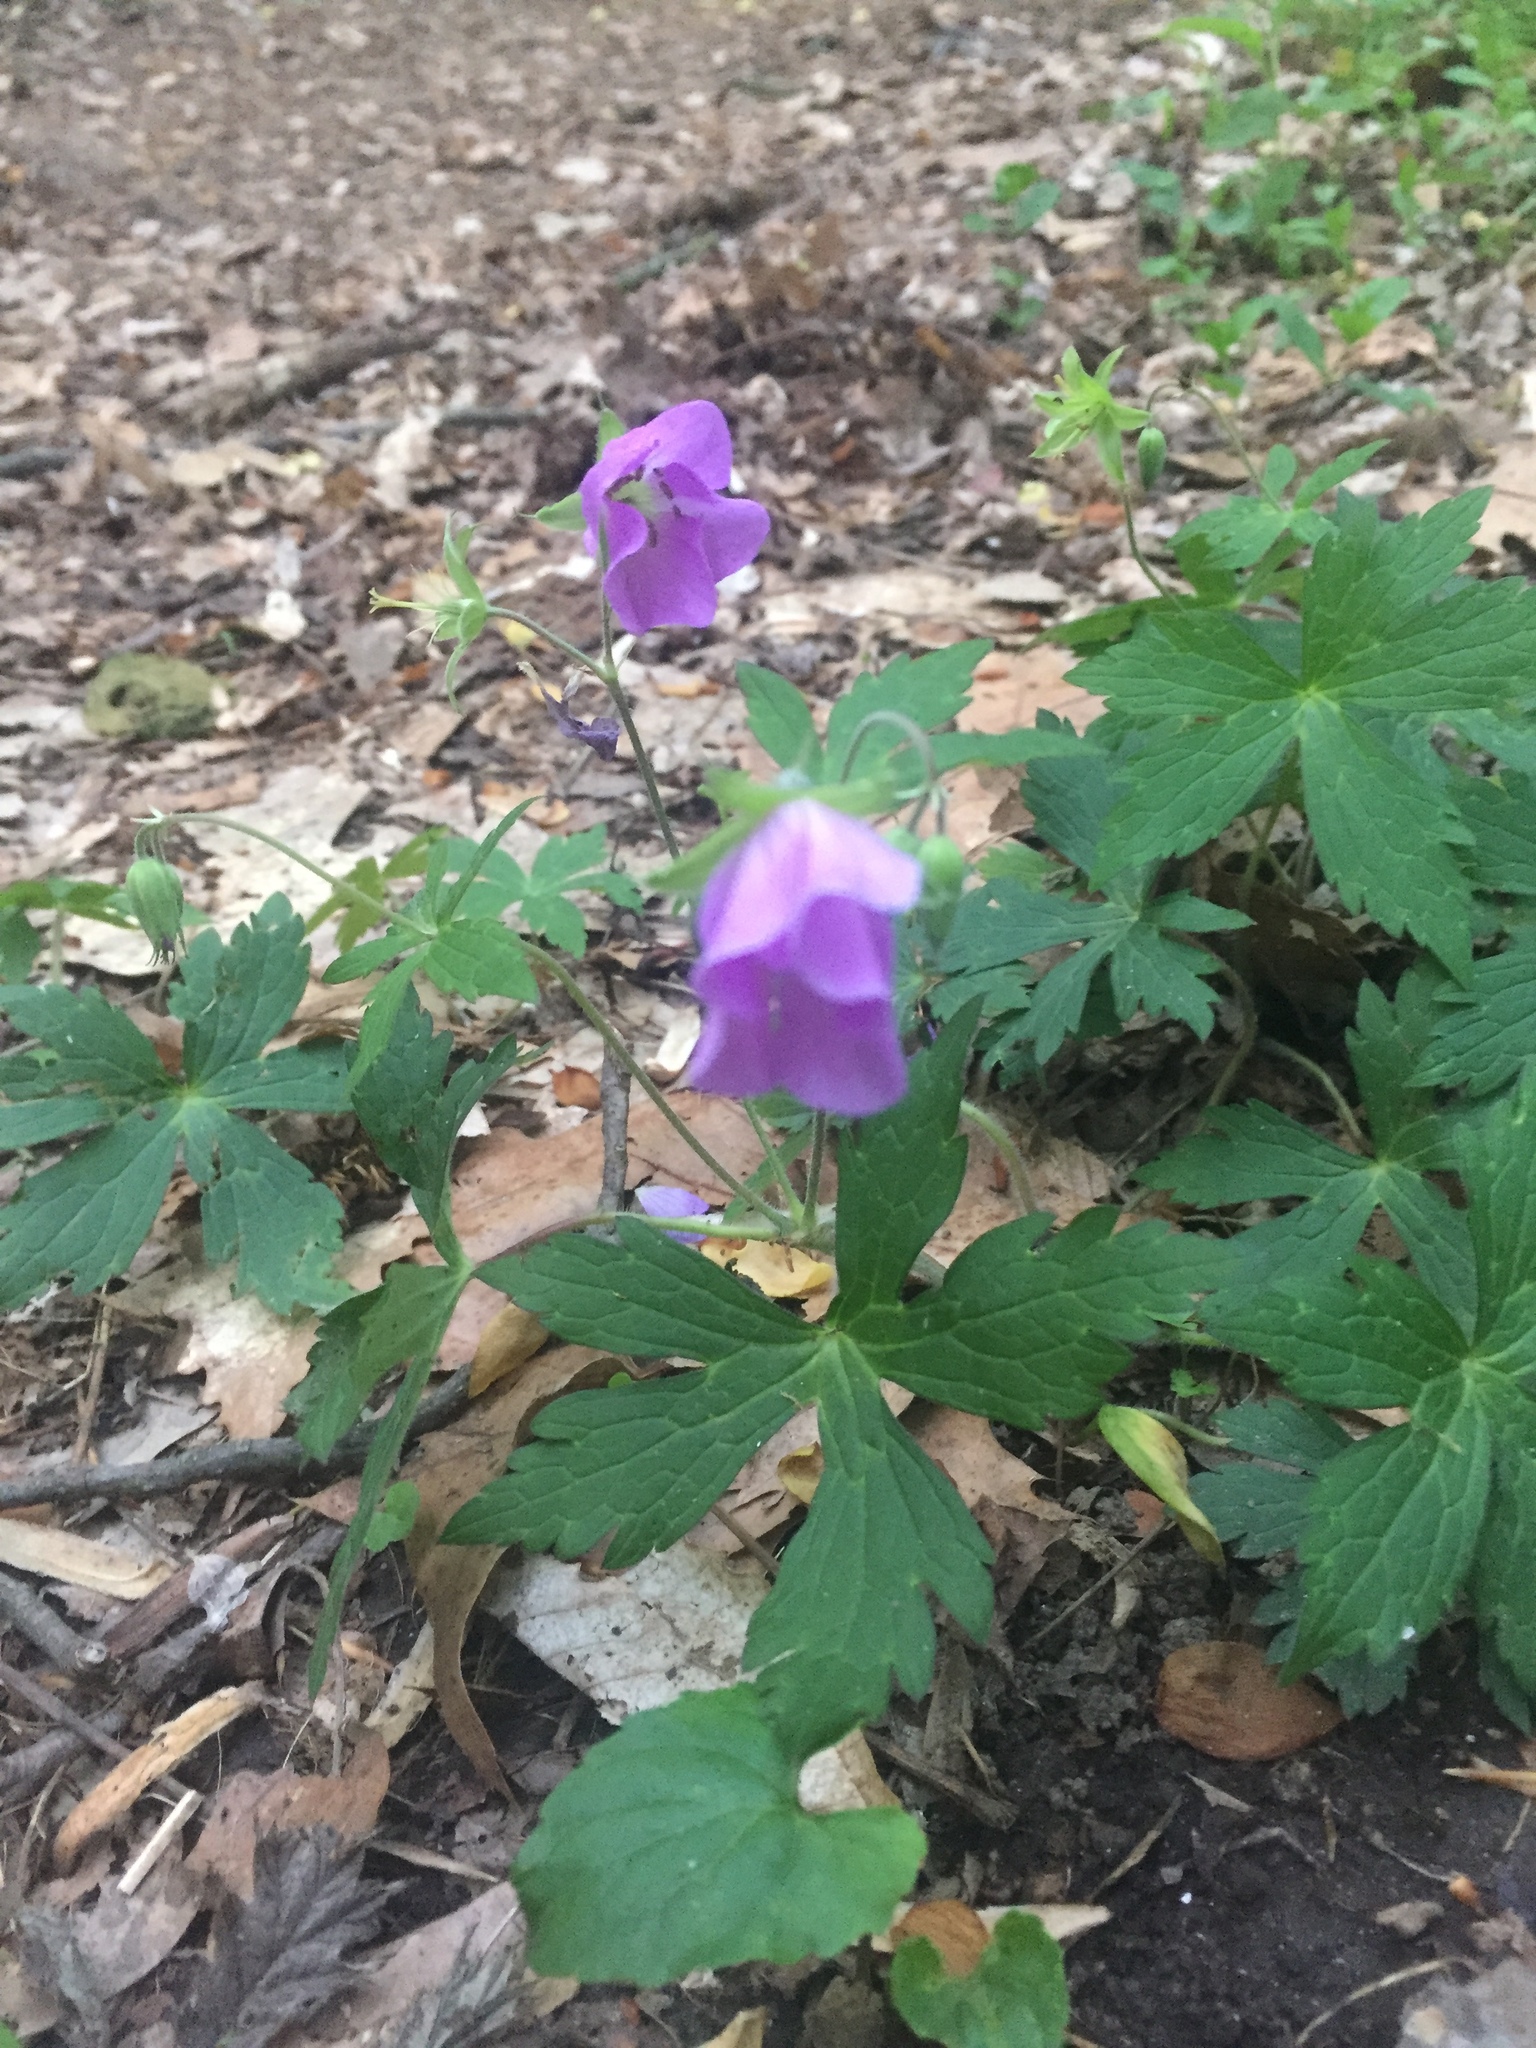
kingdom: Plantae
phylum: Tracheophyta
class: Magnoliopsida
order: Geraniales
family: Geraniaceae
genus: Geranium
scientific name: Geranium maculatum
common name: Spotted geranium
